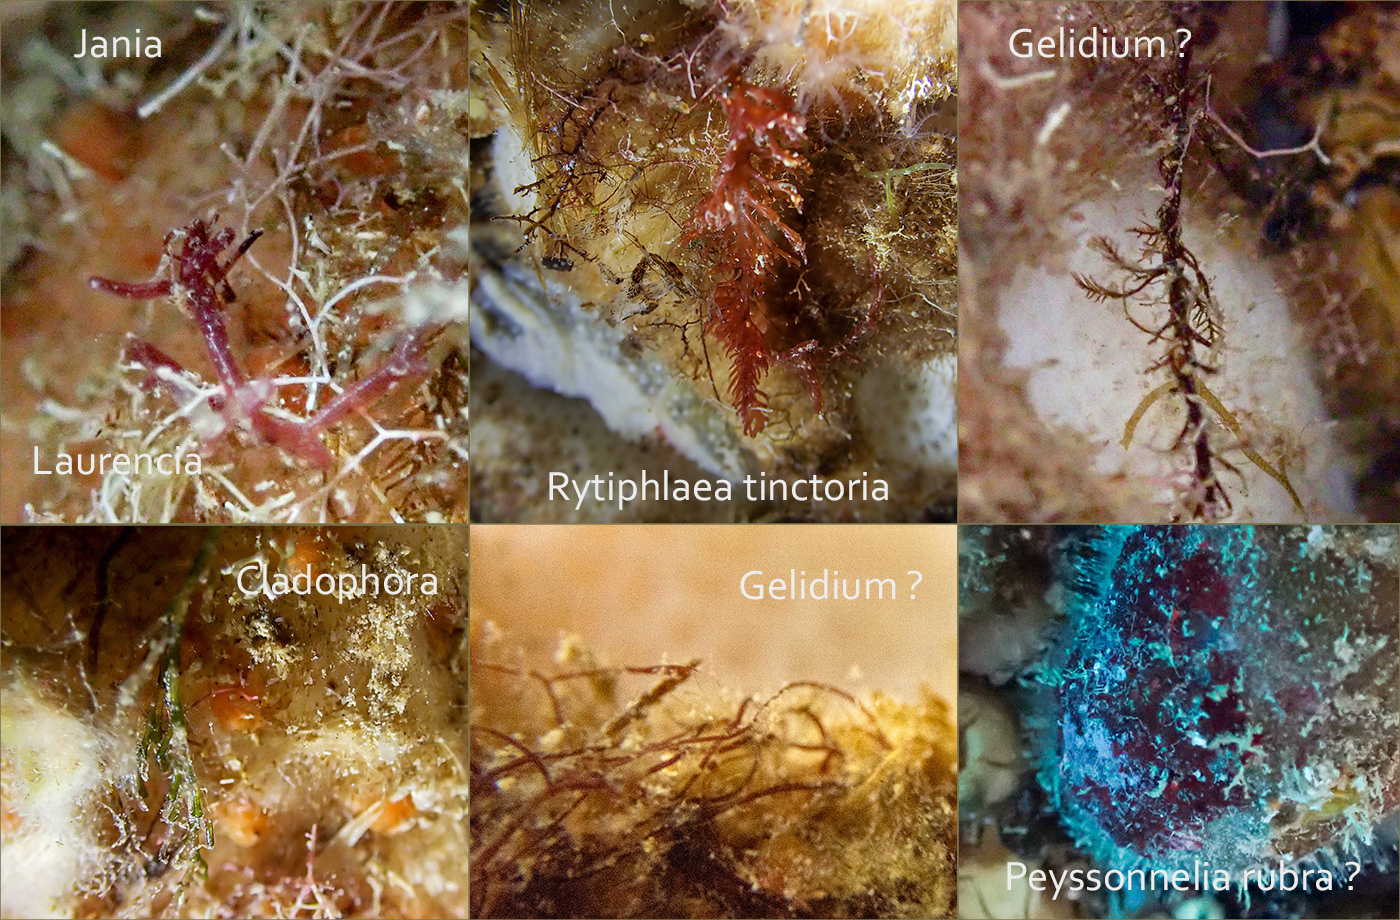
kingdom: Animalia
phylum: Porifera
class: Demospongiae
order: Tetractinellida
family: Geodiidae
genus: Geodia
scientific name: Geodia cydonium
